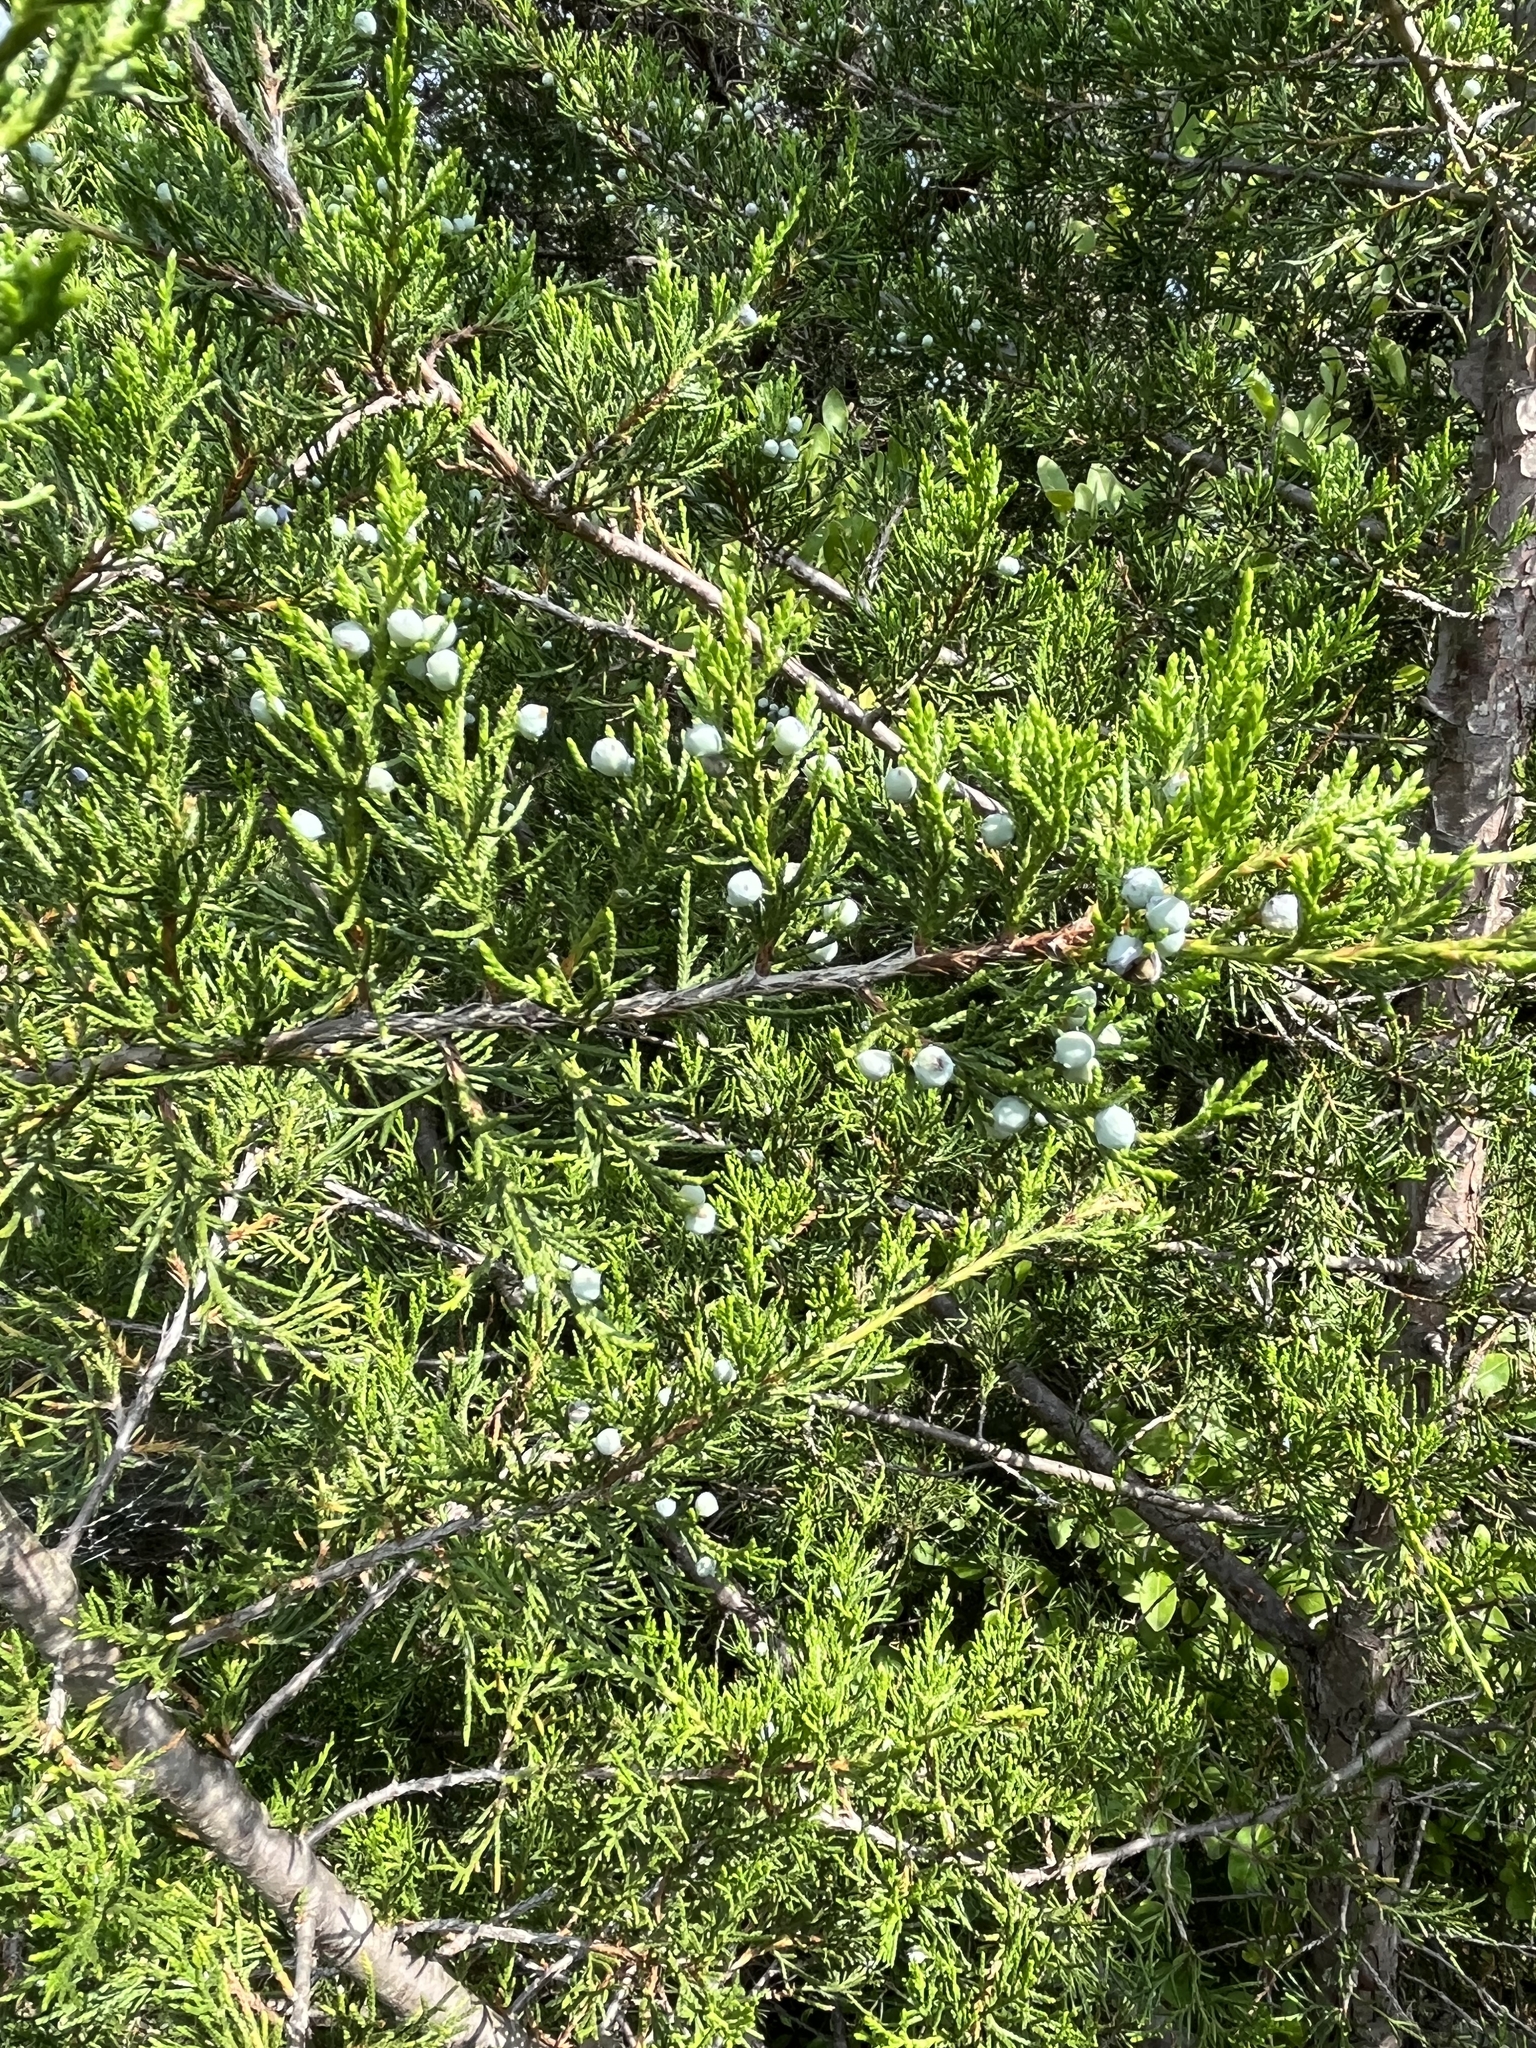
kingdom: Plantae
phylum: Tracheophyta
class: Pinopsida
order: Pinales
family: Cupressaceae
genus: Juniperus
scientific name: Juniperus virginiana
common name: Red juniper
